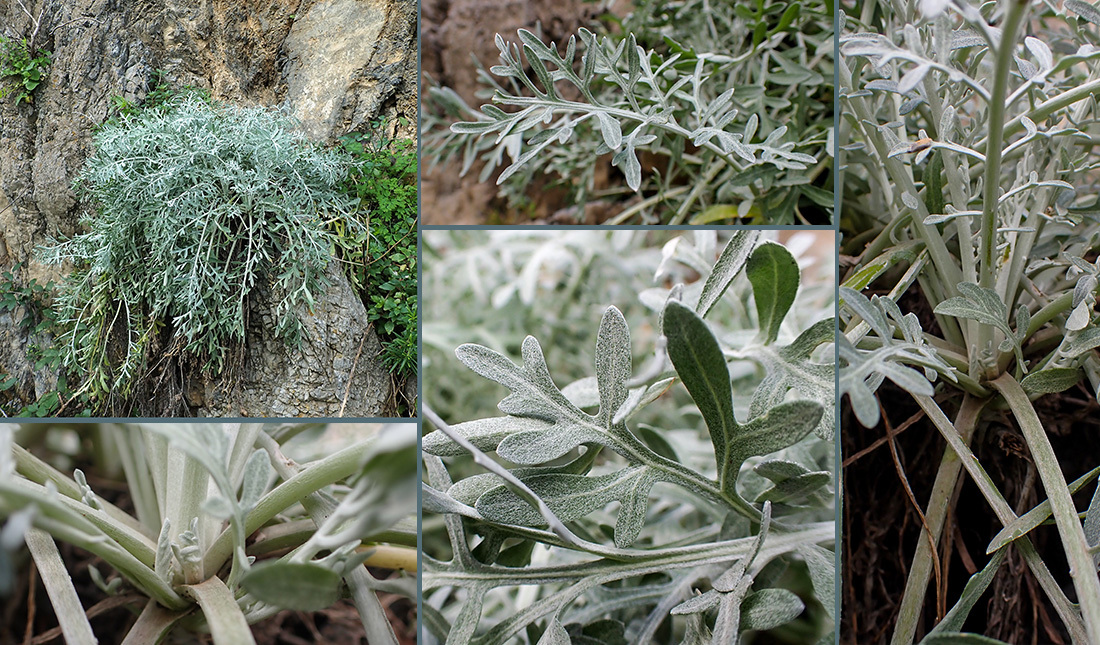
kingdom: Plantae
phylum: Tracheophyta
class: Magnoliopsida
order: Asterales
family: Asteraceae
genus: Centaurea
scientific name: Centaurea cineraria
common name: Dusty miller
